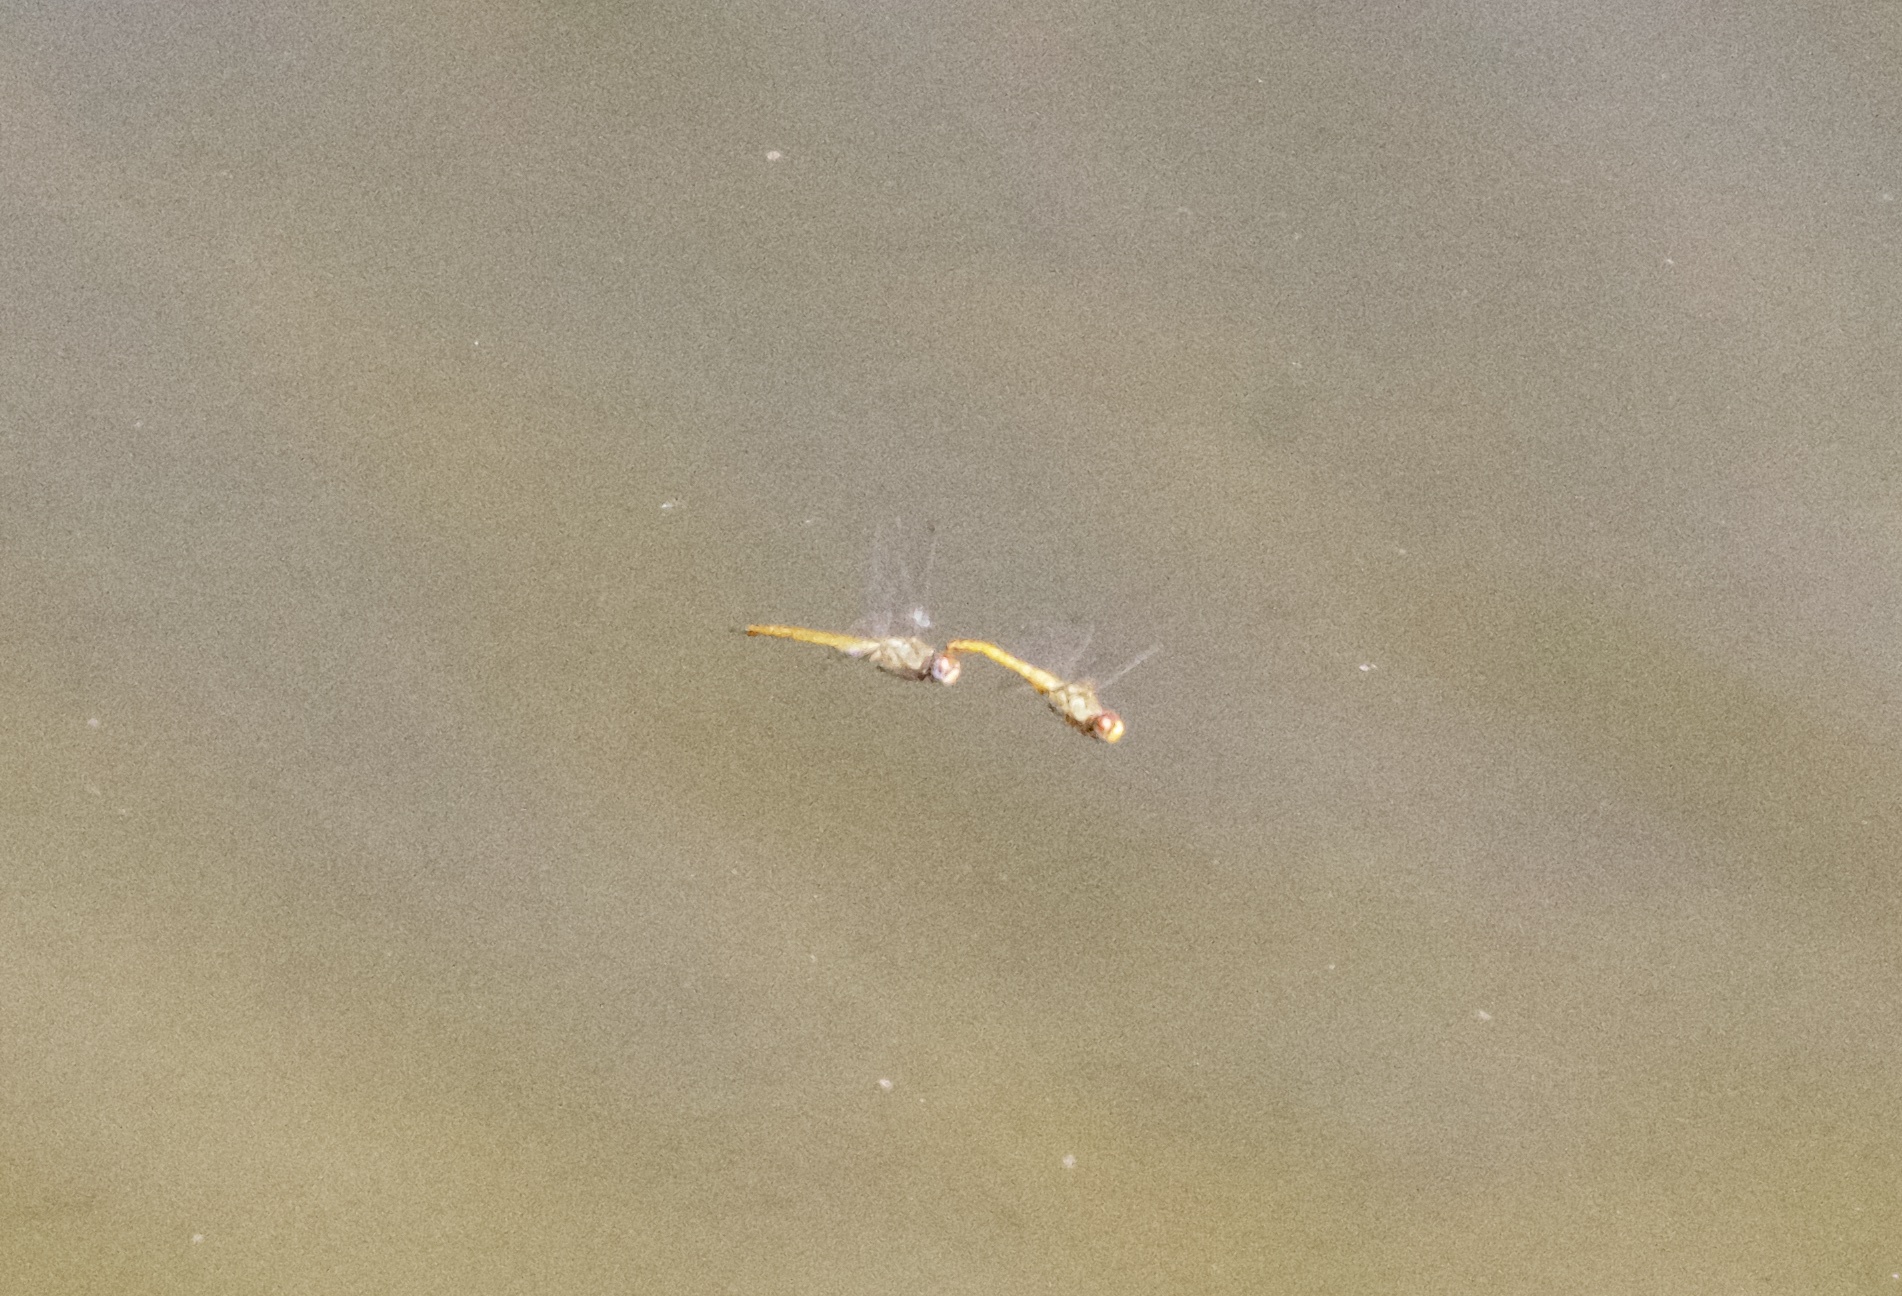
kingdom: Animalia
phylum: Arthropoda
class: Insecta
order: Odonata
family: Libellulidae
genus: Pantala
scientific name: Pantala flavescens
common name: Wandering glider
